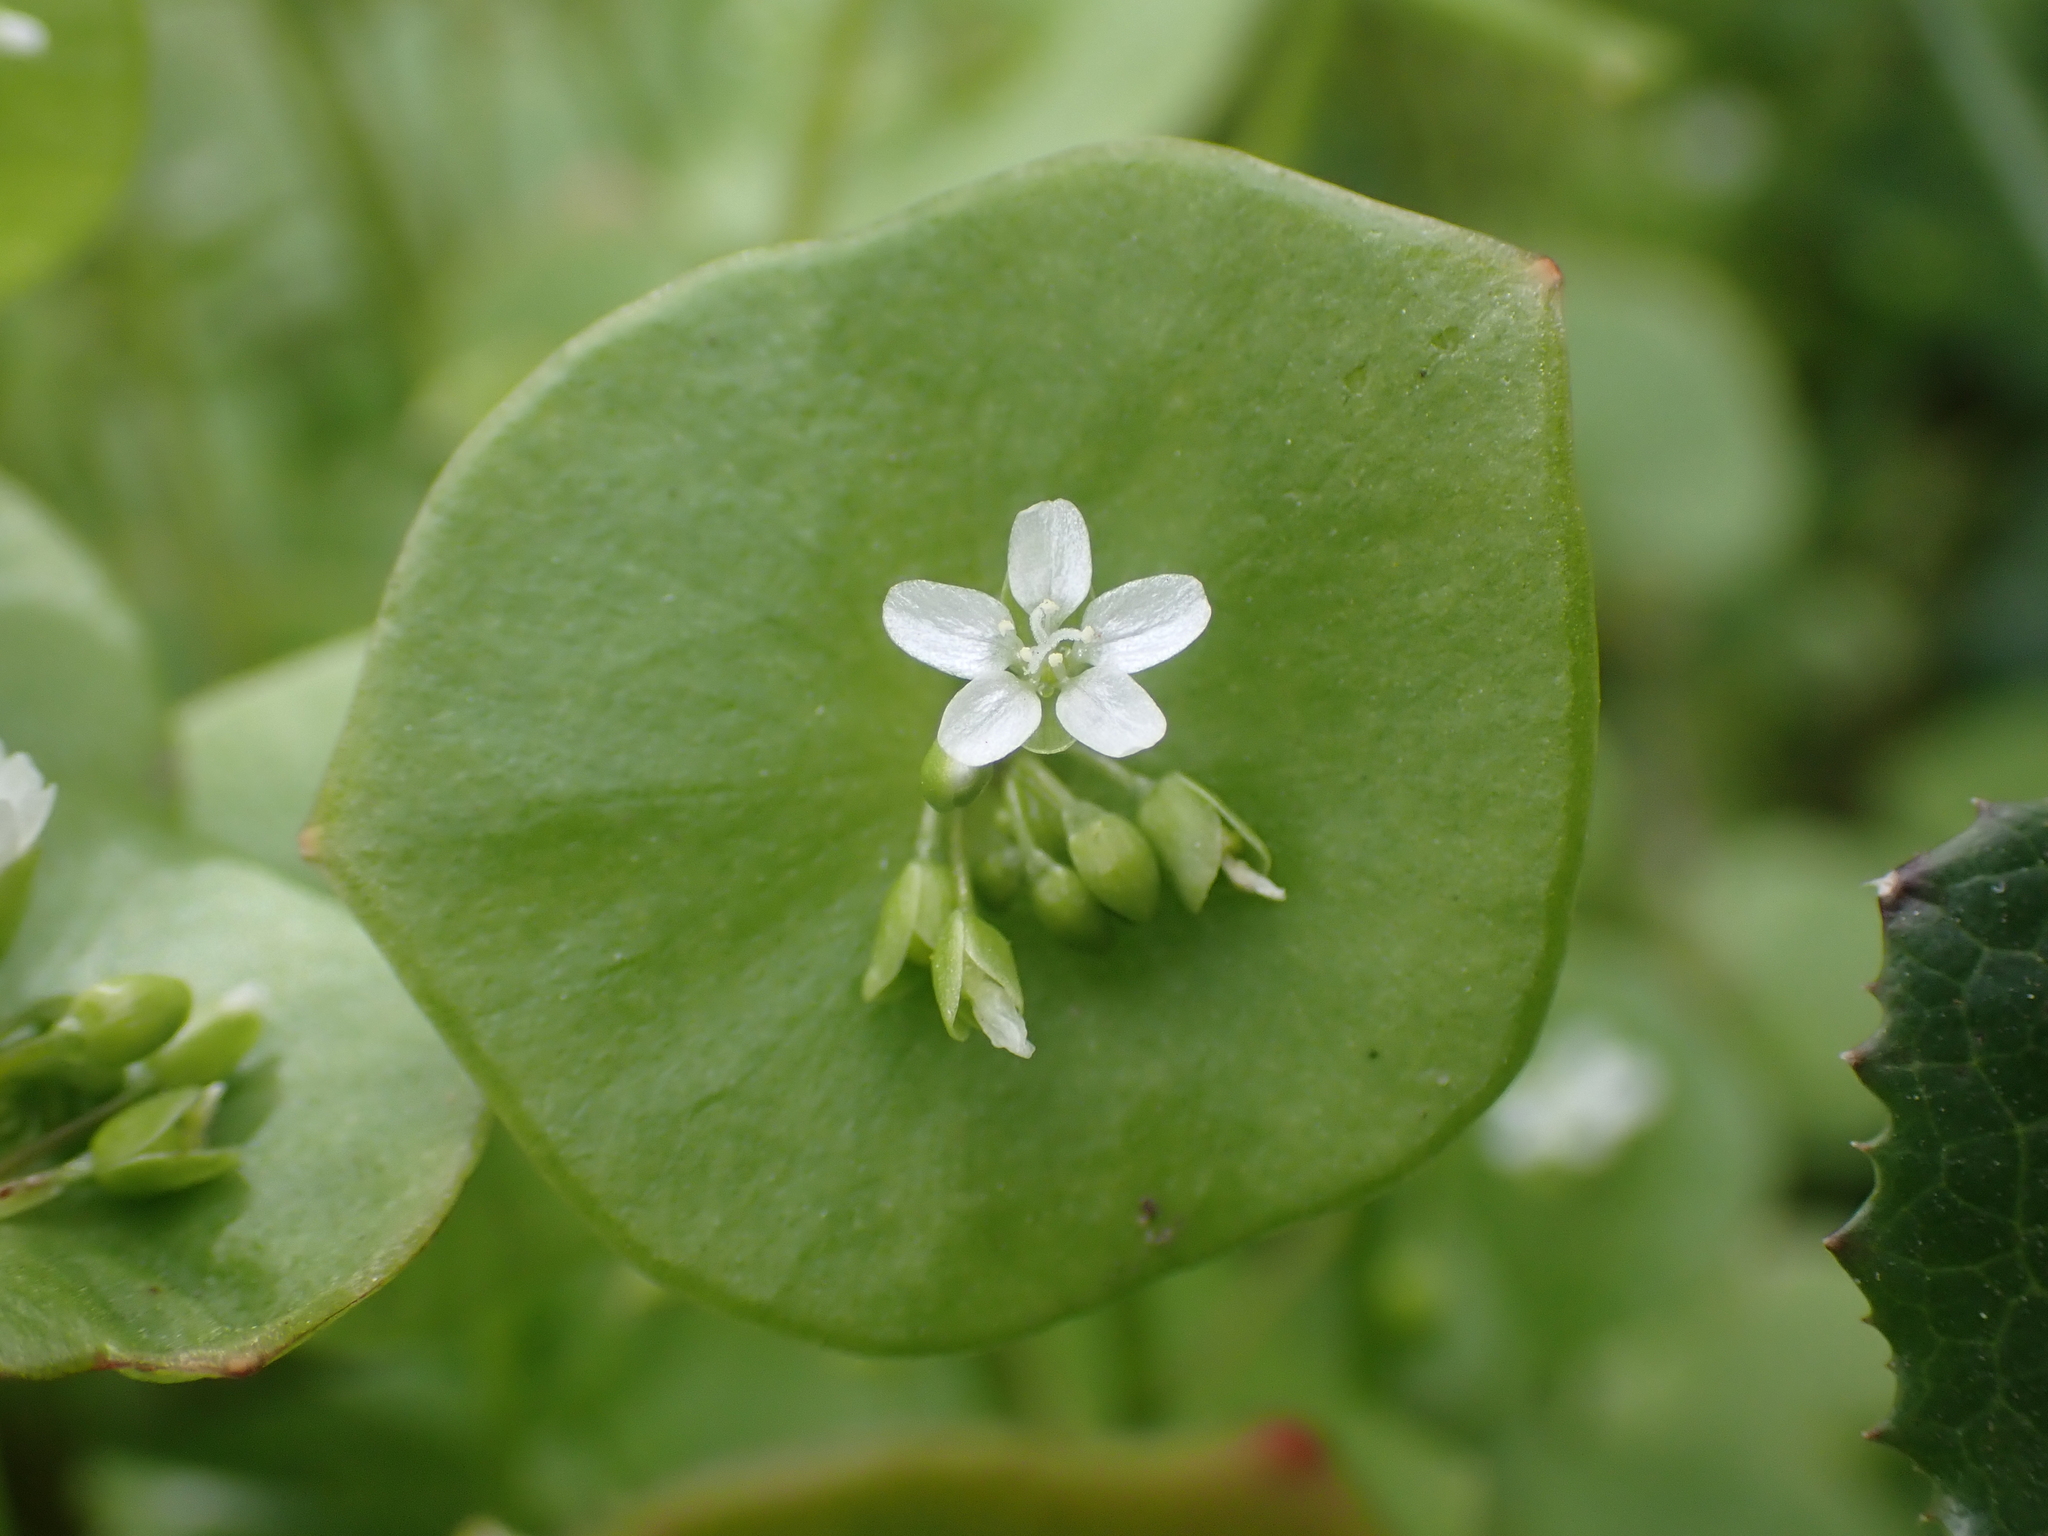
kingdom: Plantae
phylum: Tracheophyta
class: Magnoliopsida
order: Caryophyllales
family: Montiaceae
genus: Claytonia
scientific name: Claytonia perfoliata
